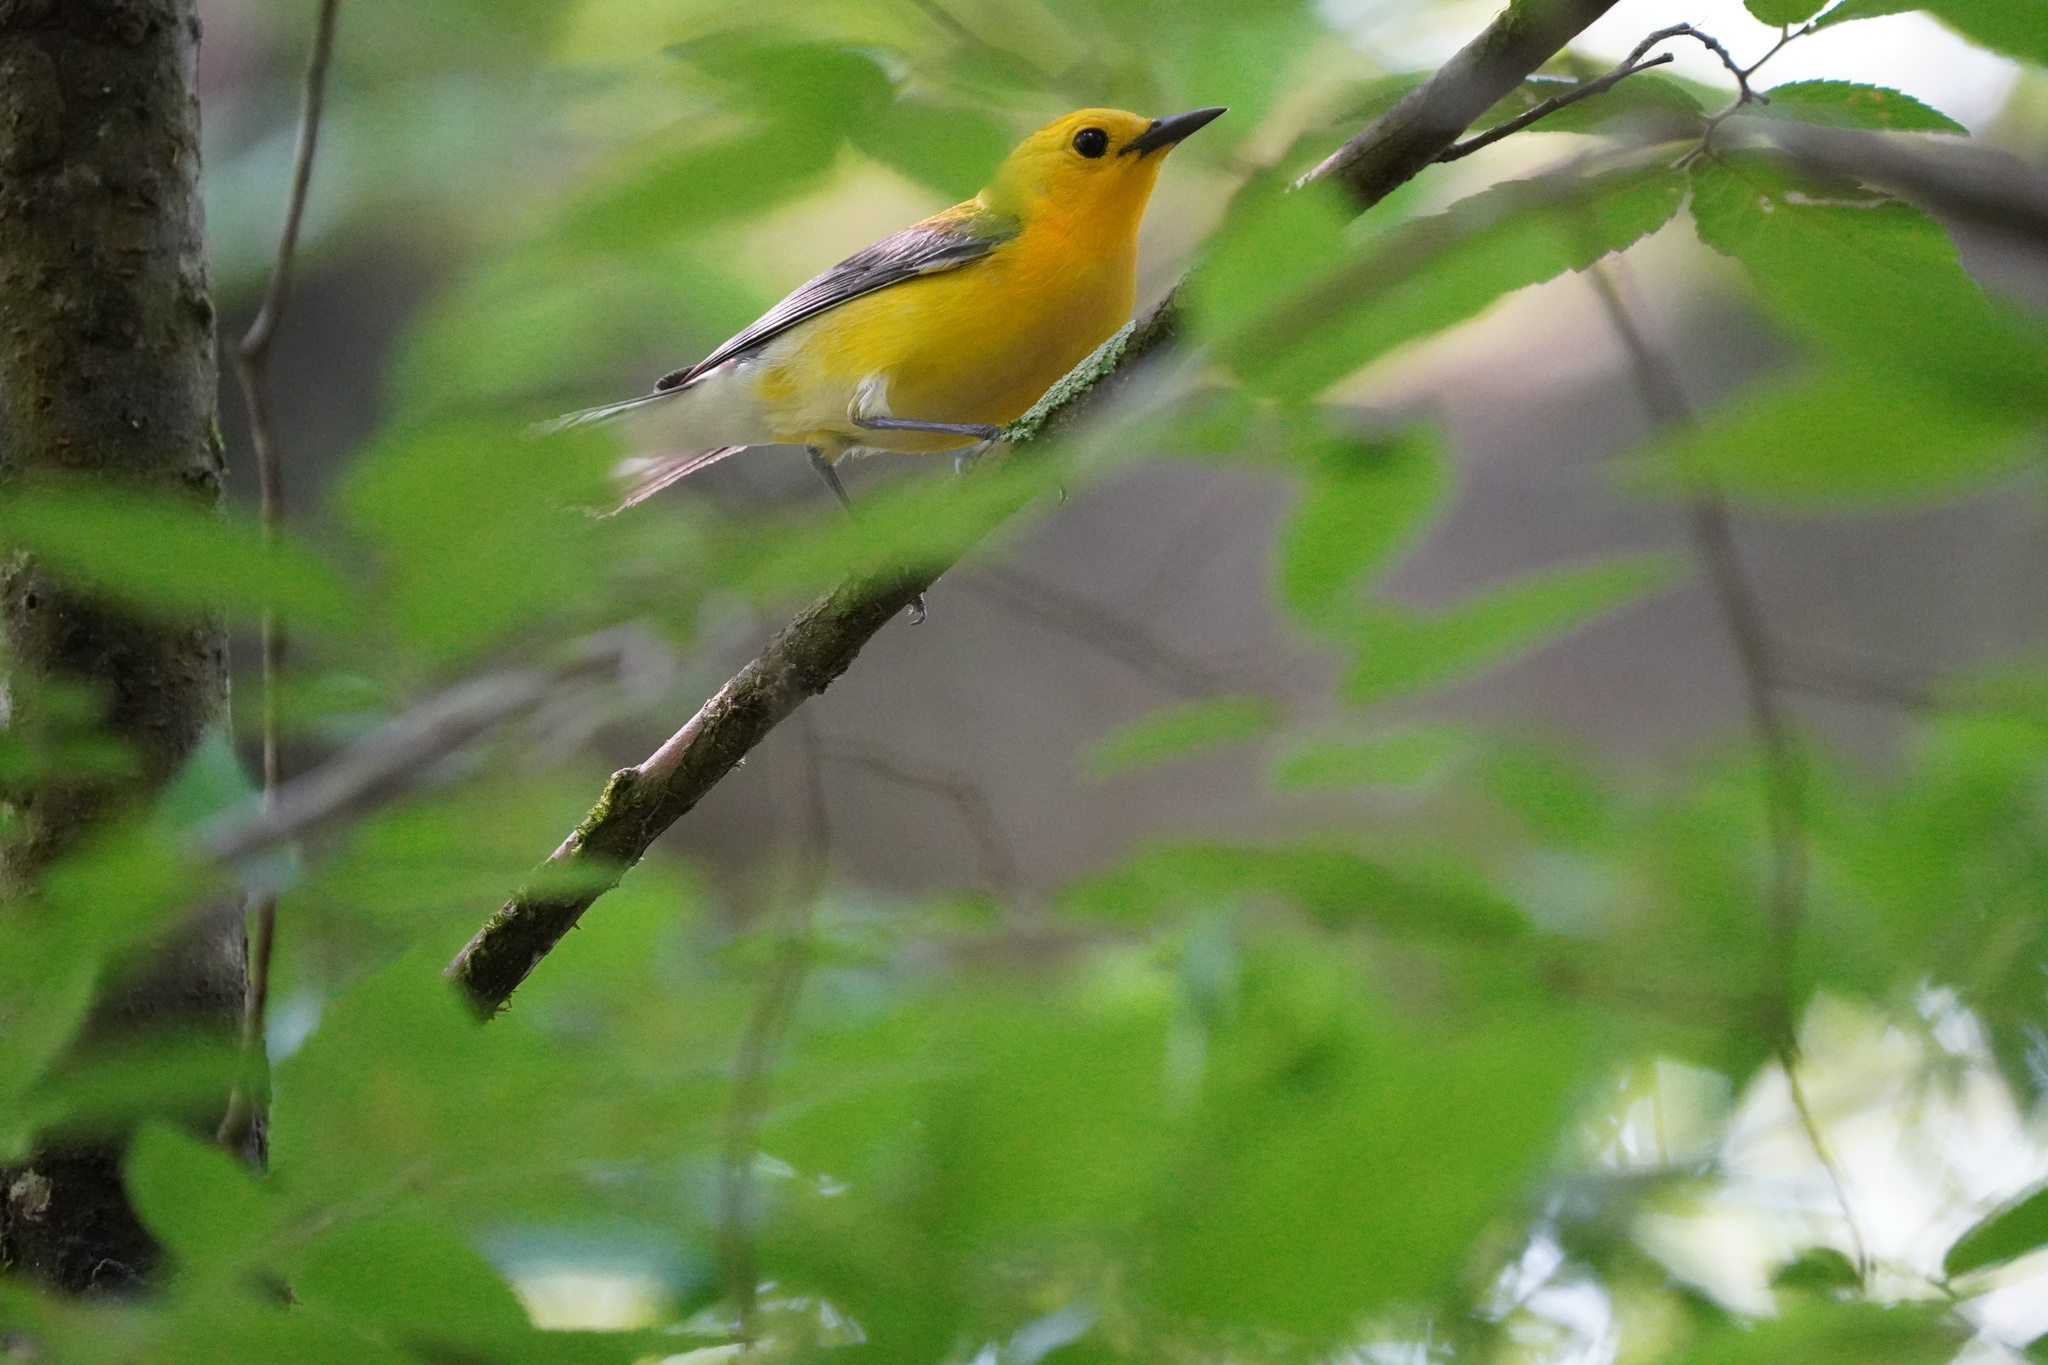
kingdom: Animalia
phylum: Chordata
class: Aves
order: Passeriformes
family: Parulidae
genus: Protonotaria
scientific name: Protonotaria citrea
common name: Prothonotary warbler
